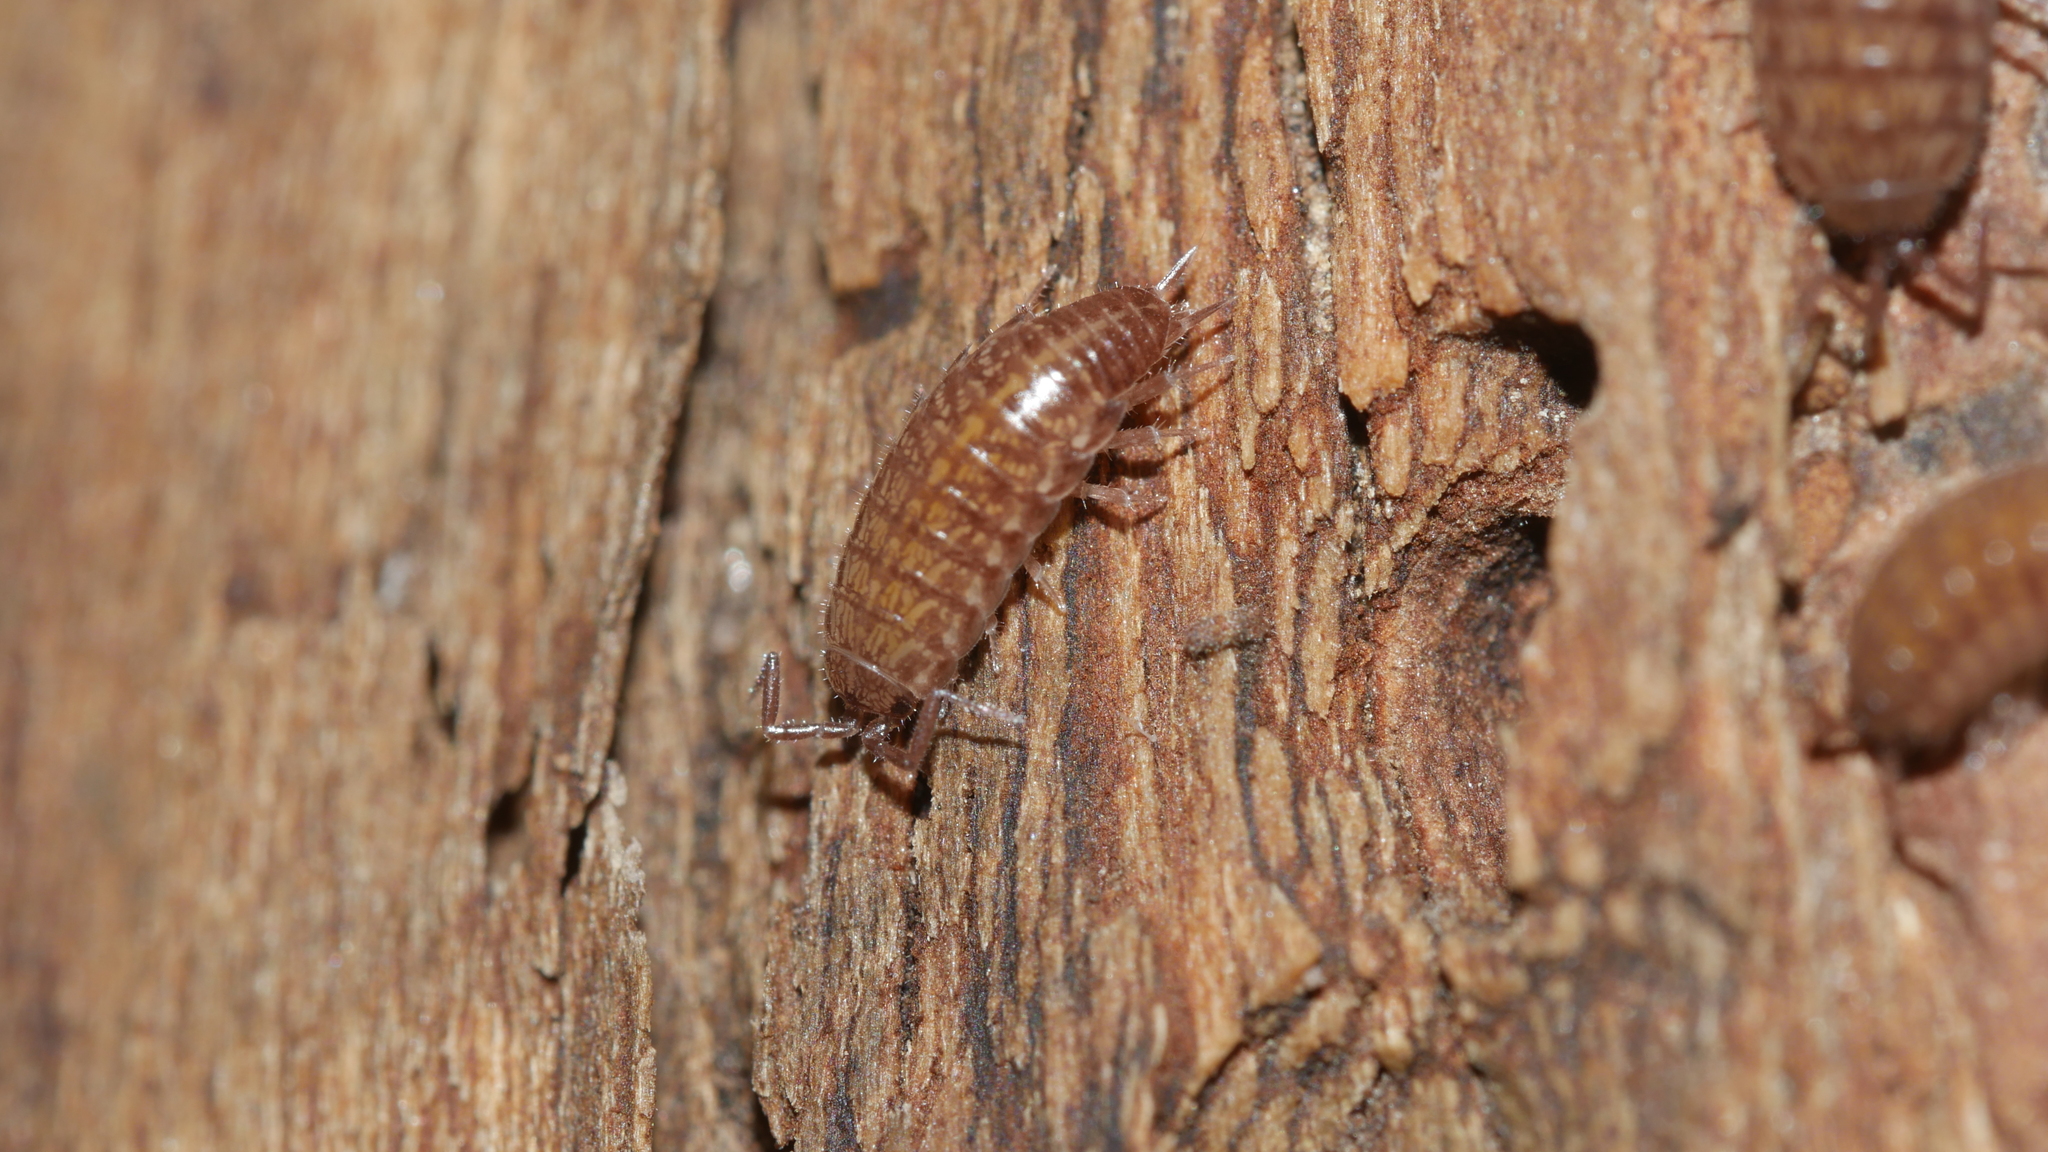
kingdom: Animalia
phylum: Arthropoda
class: Malacostraca
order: Isopoda
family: Philosciidae
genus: Chaetophiloscia
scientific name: Chaetophiloscia sicula
